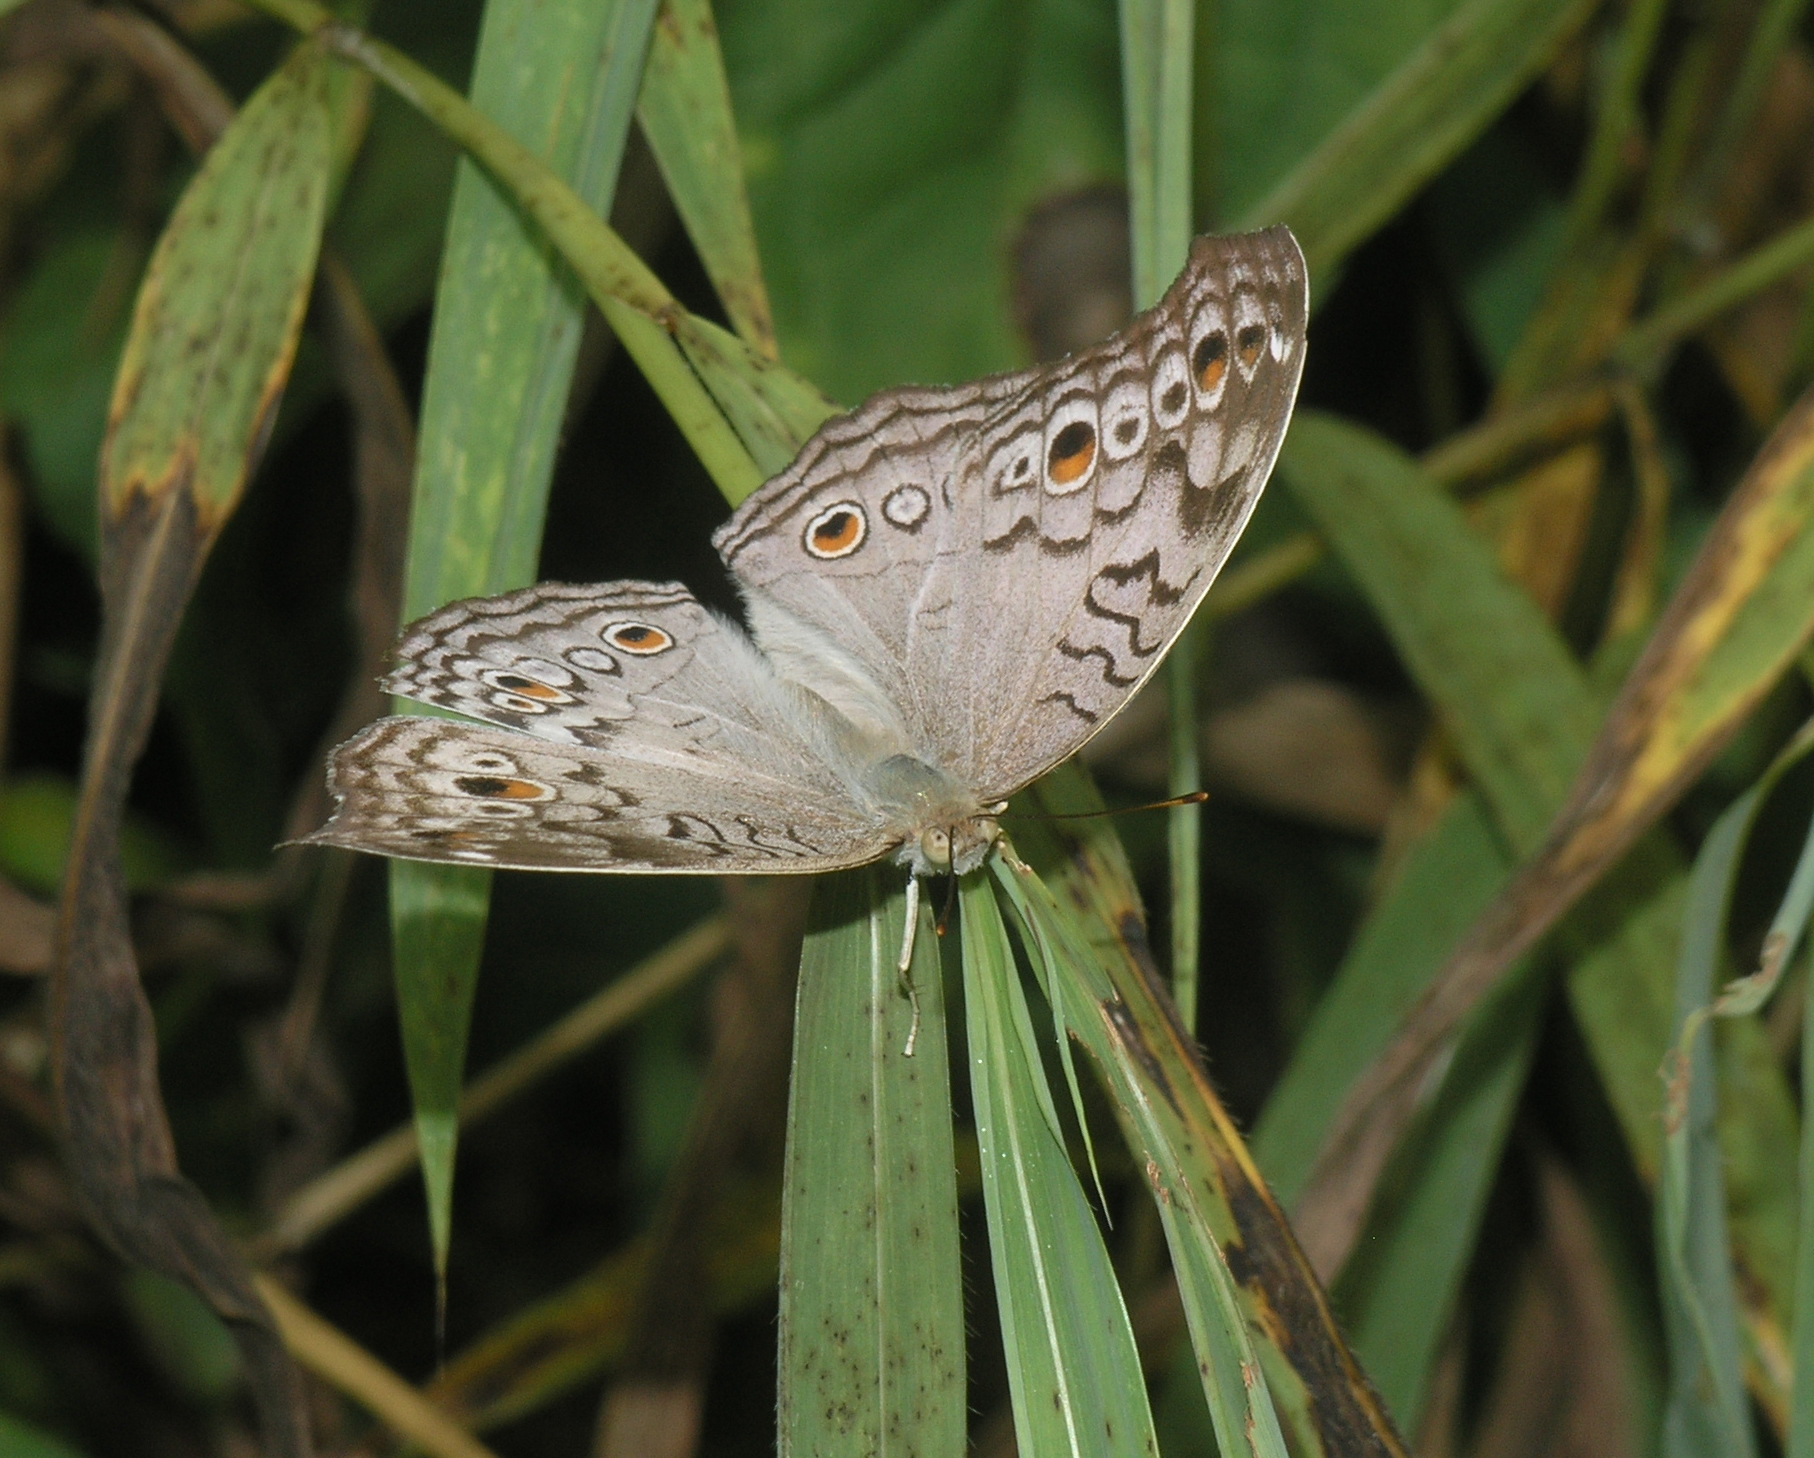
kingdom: Animalia
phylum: Arthropoda
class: Insecta
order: Lepidoptera
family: Nymphalidae
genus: Junonia
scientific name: Junonia atlites
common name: Grey pansy
